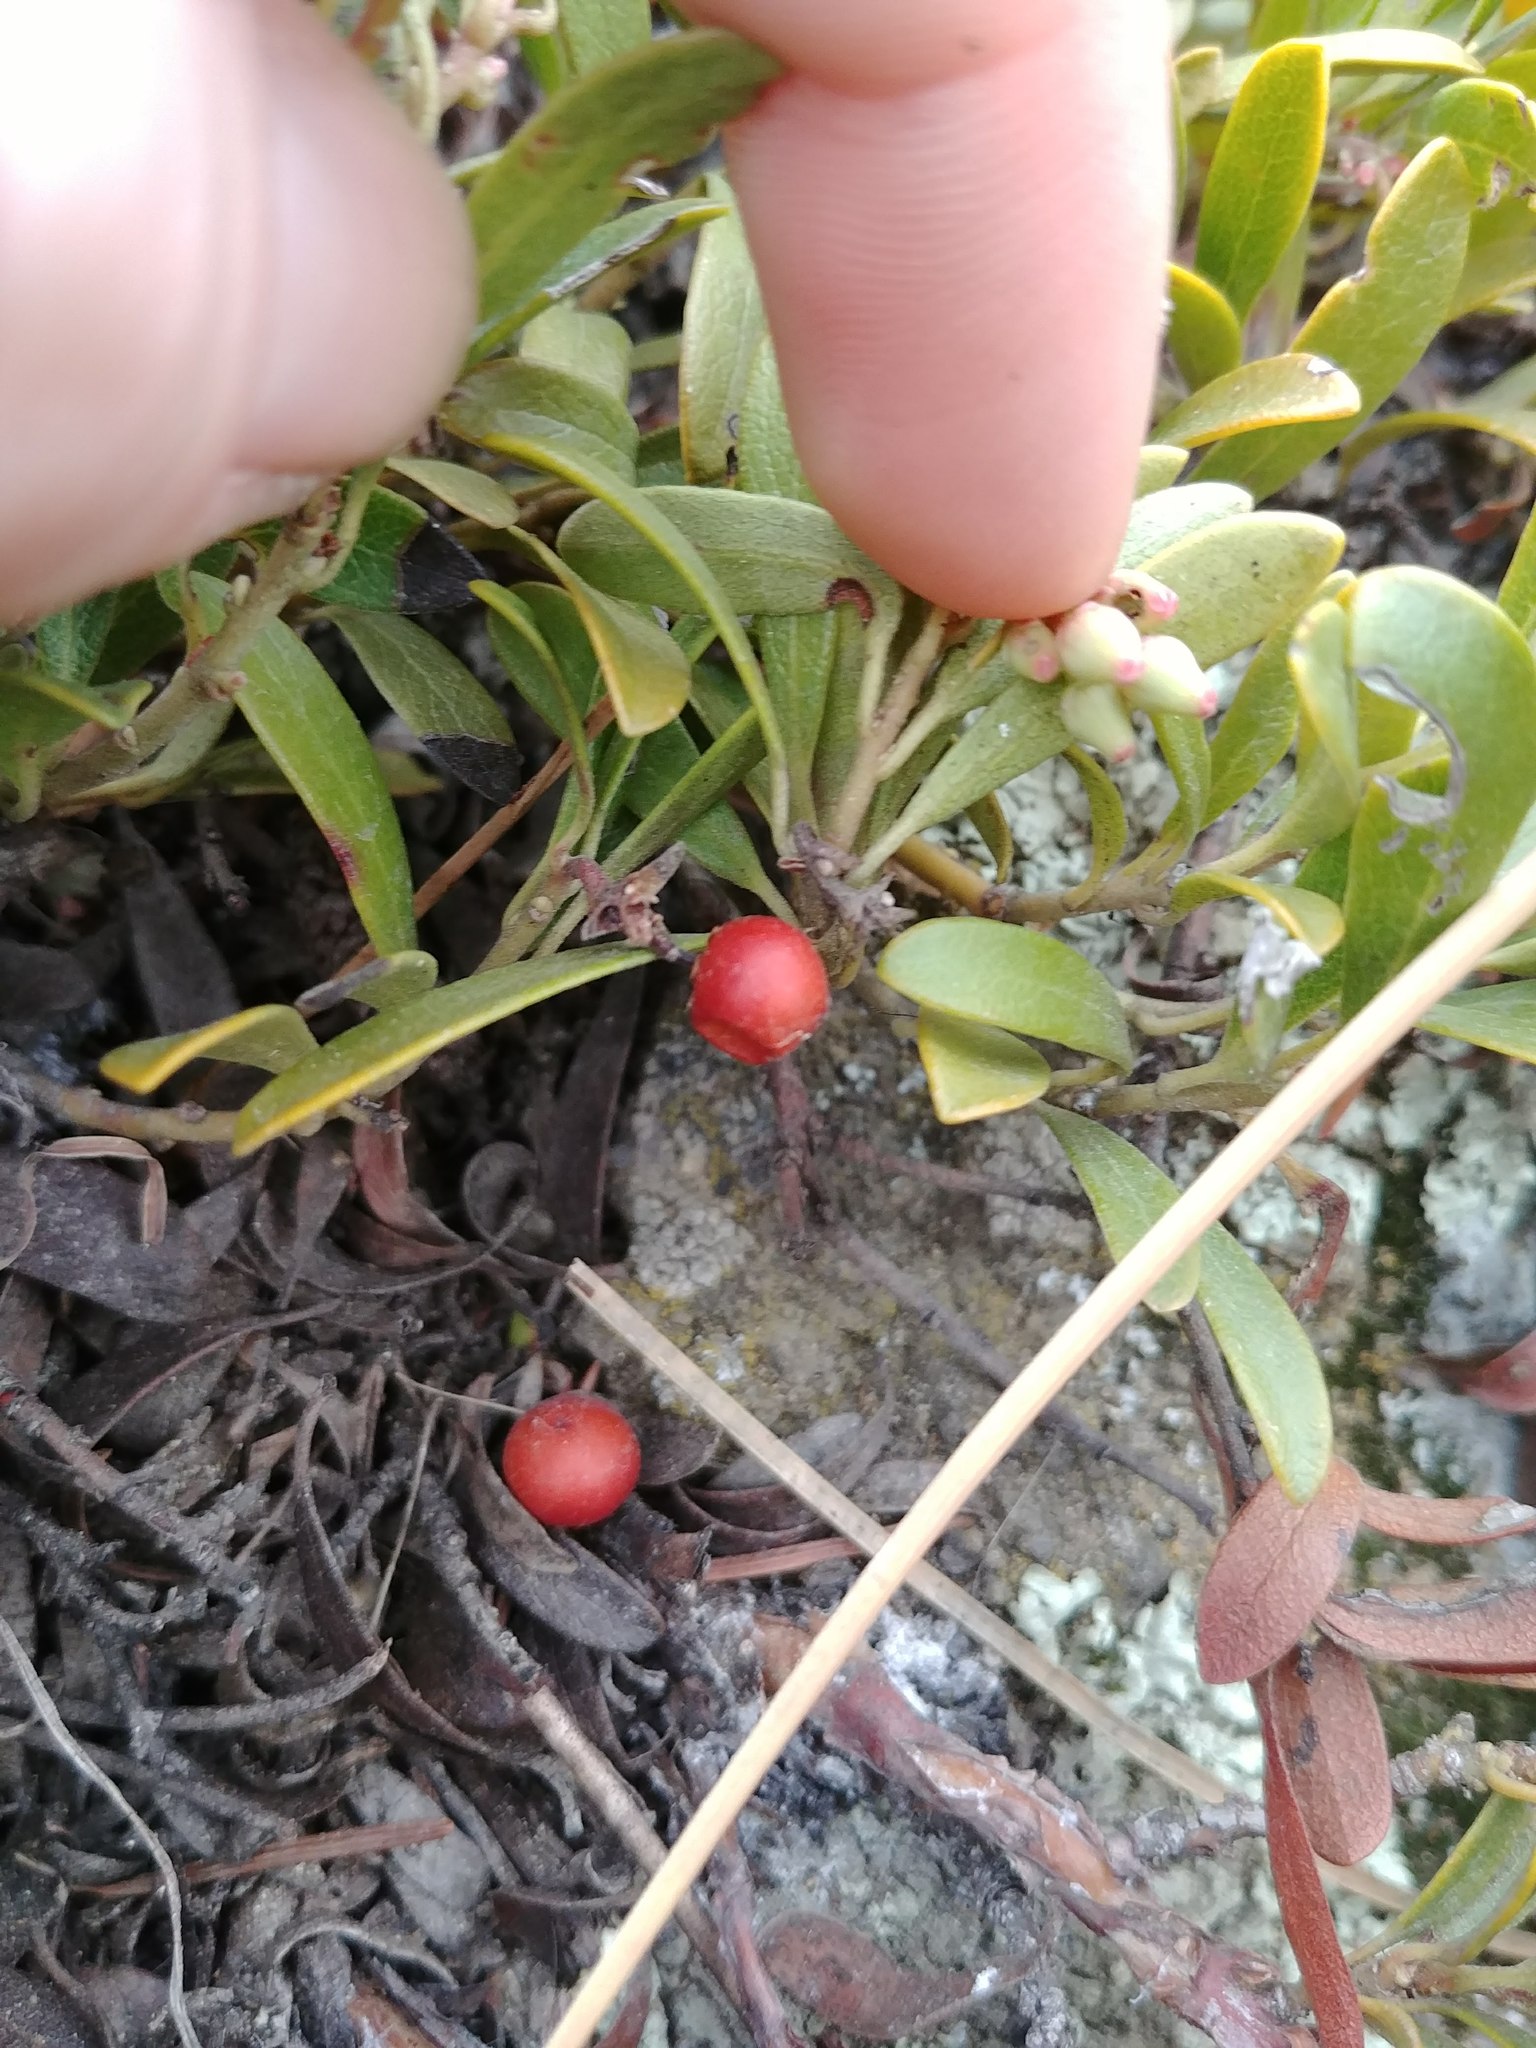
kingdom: Plantae
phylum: Tracheophyta
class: Magnoliopsida
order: Ericales
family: Ericaceae
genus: Arctostaphylos
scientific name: Arctostaphylos uva-ursi
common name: Bearberry
